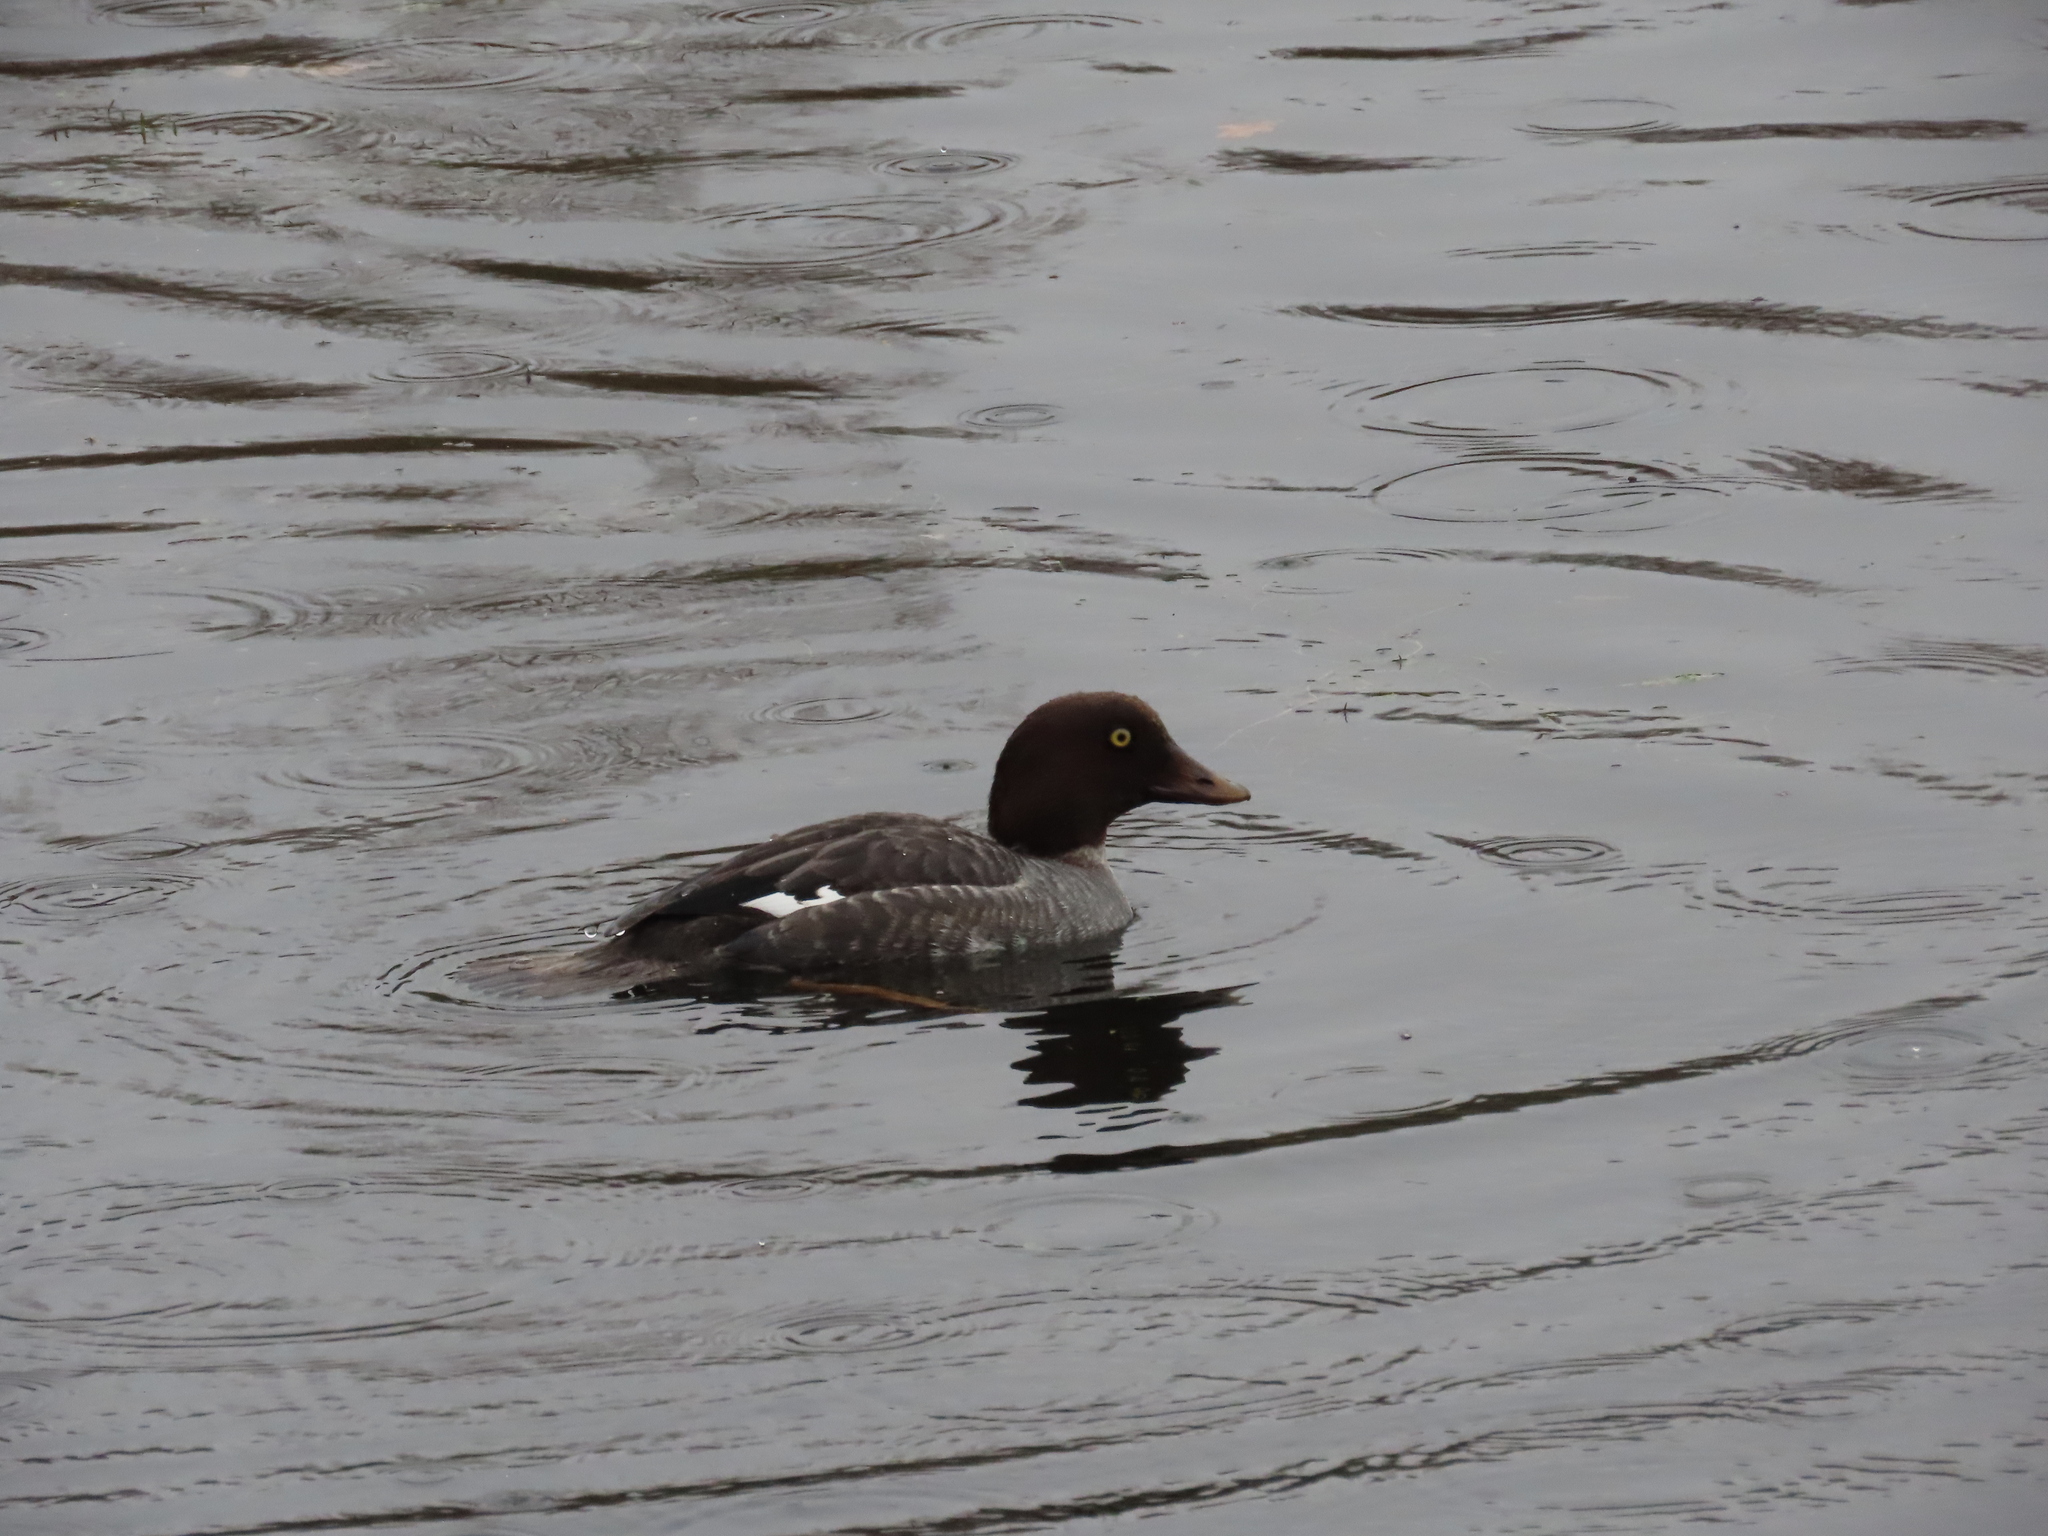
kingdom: Animalia
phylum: Chordata
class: Aves
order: Anseriformes
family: Anatidae
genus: Bucephala
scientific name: Bucephala clangula
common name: Common goldeneye
